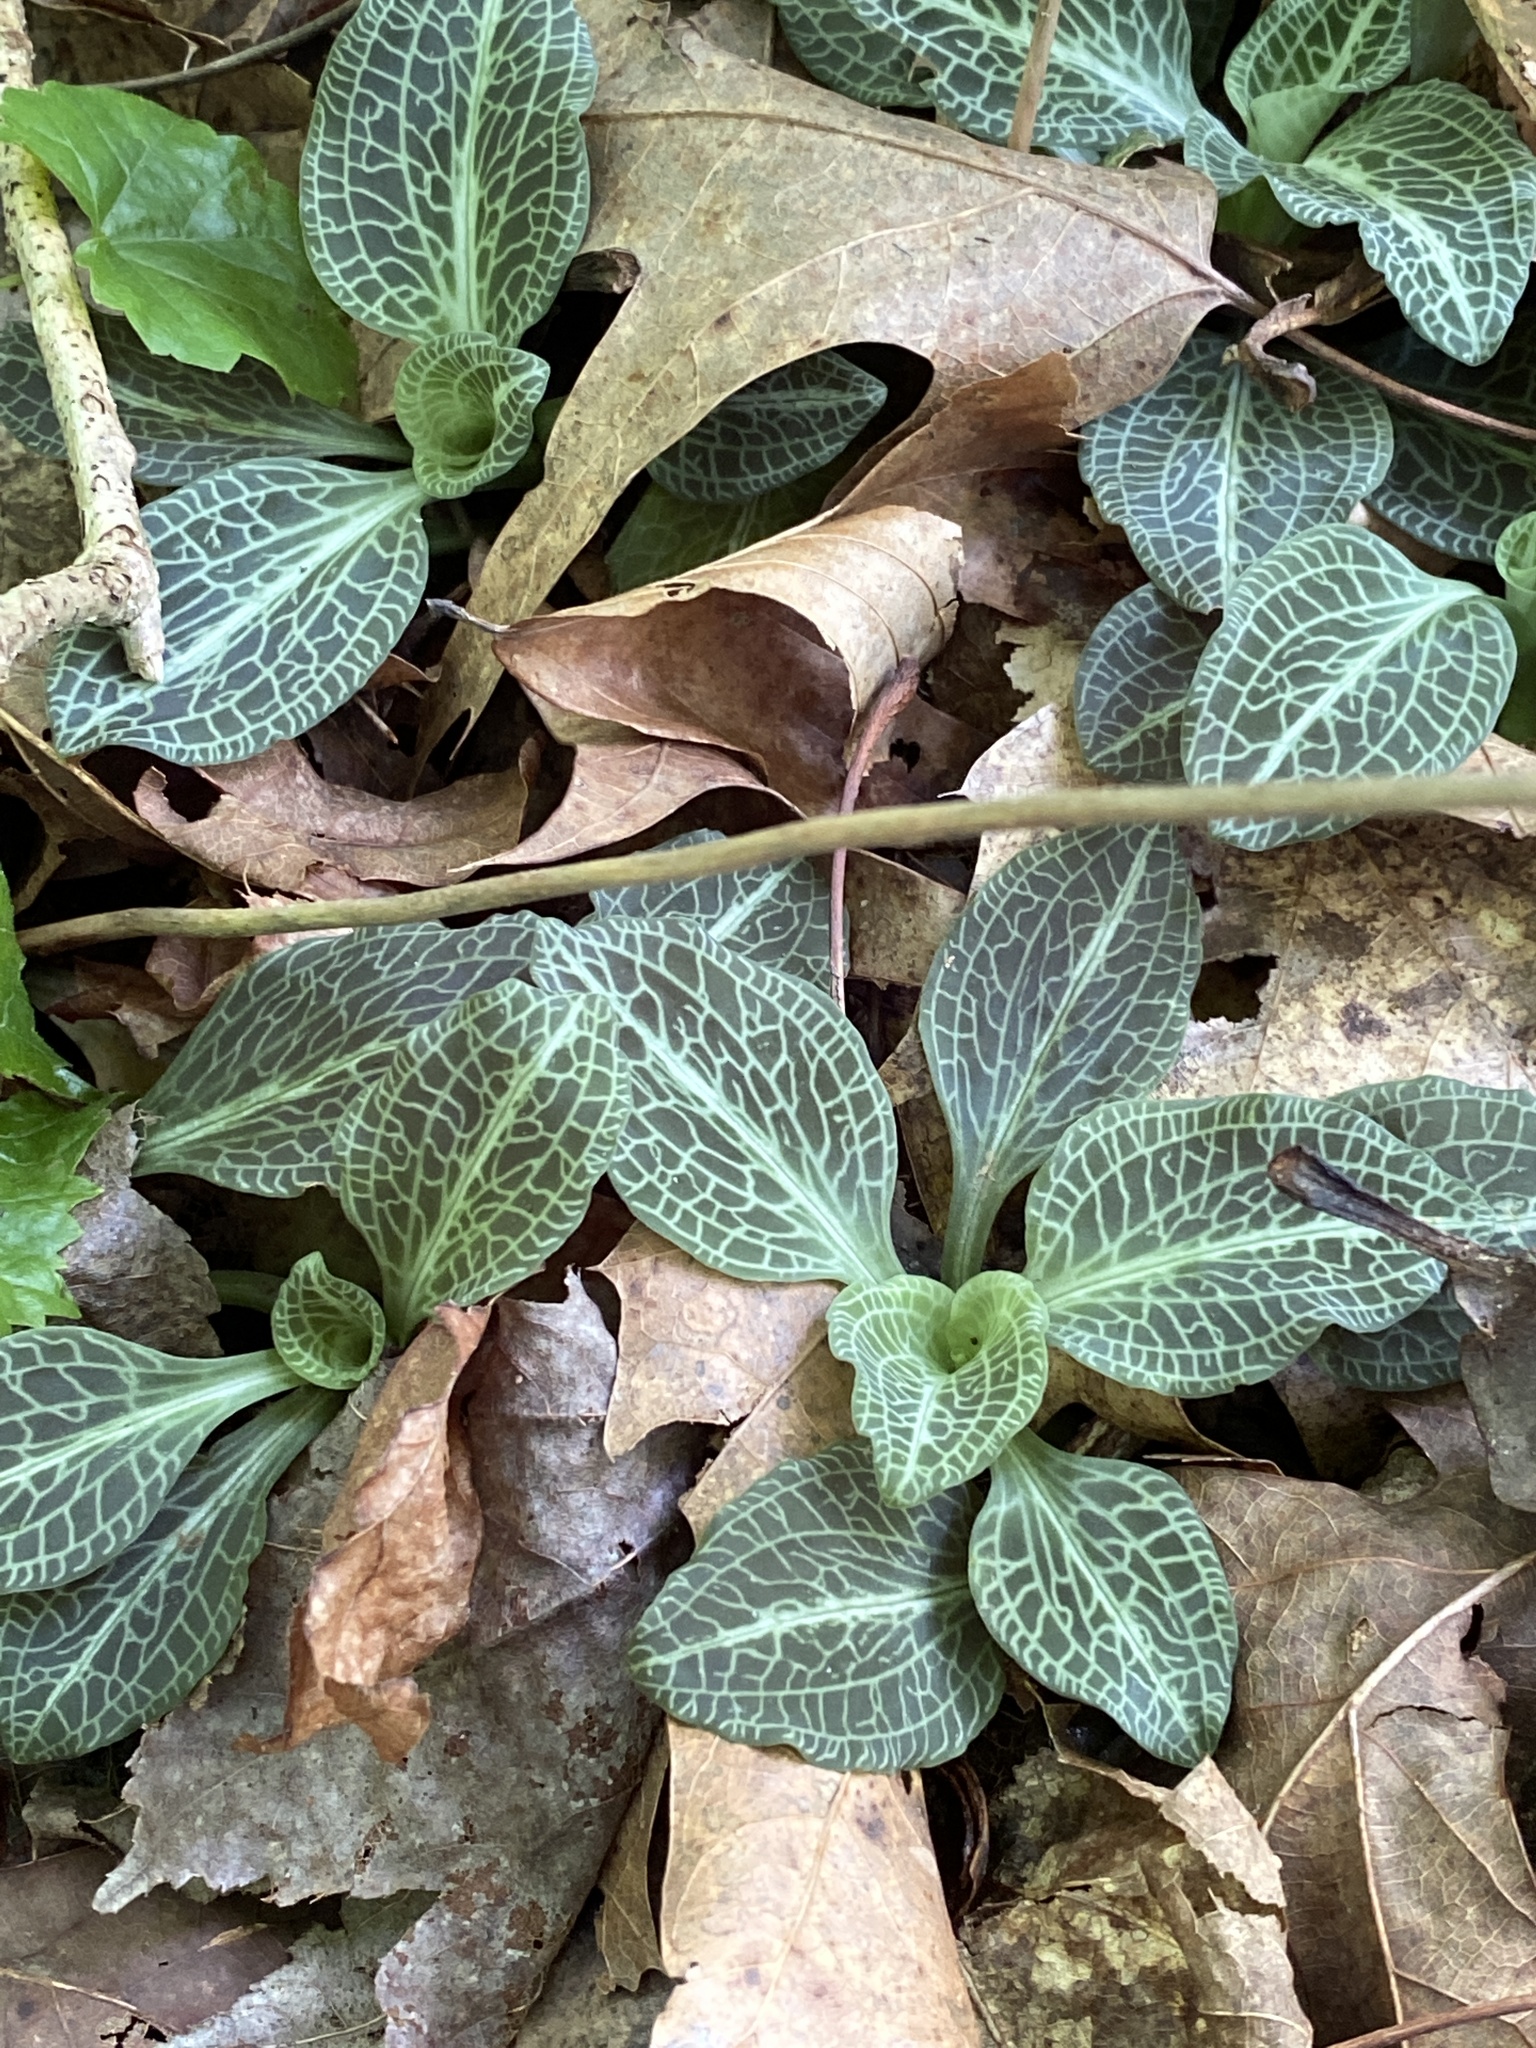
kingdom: Plantae
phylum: Tracheophyta
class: Liliopsida
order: Asparagales
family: Orchidaceae
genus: Goodyera
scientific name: Goodyera pubescens
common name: Downy rattlesnake-plantain
